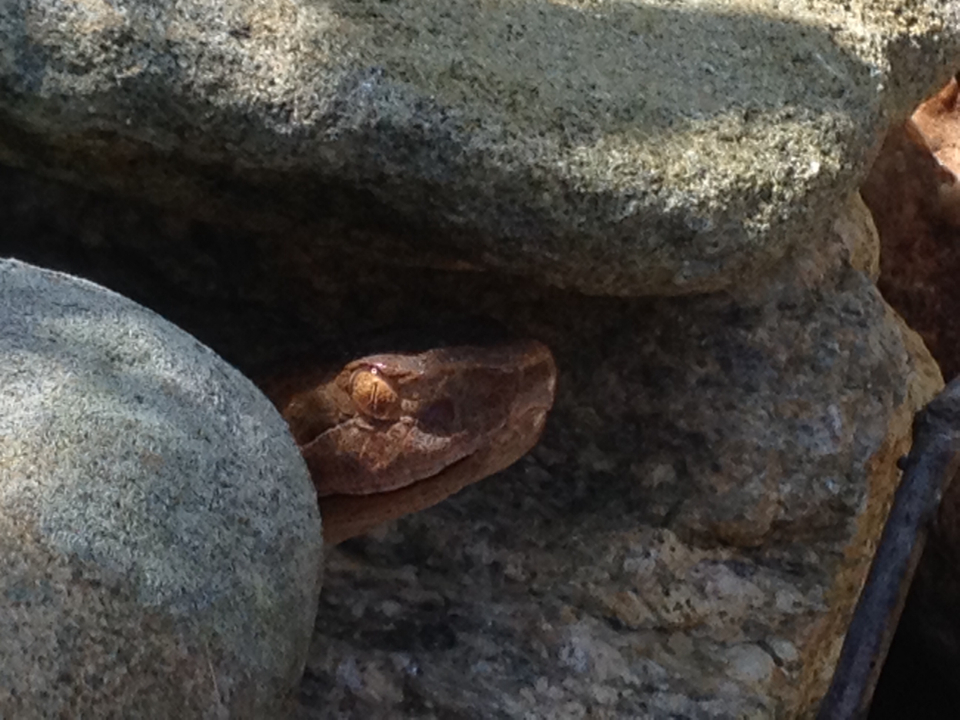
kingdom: Animalia
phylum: Chordata
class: Squamata
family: Viperidae
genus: Agkistrodon
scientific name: Agkistrodon contortrix
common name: Northern copperhead
